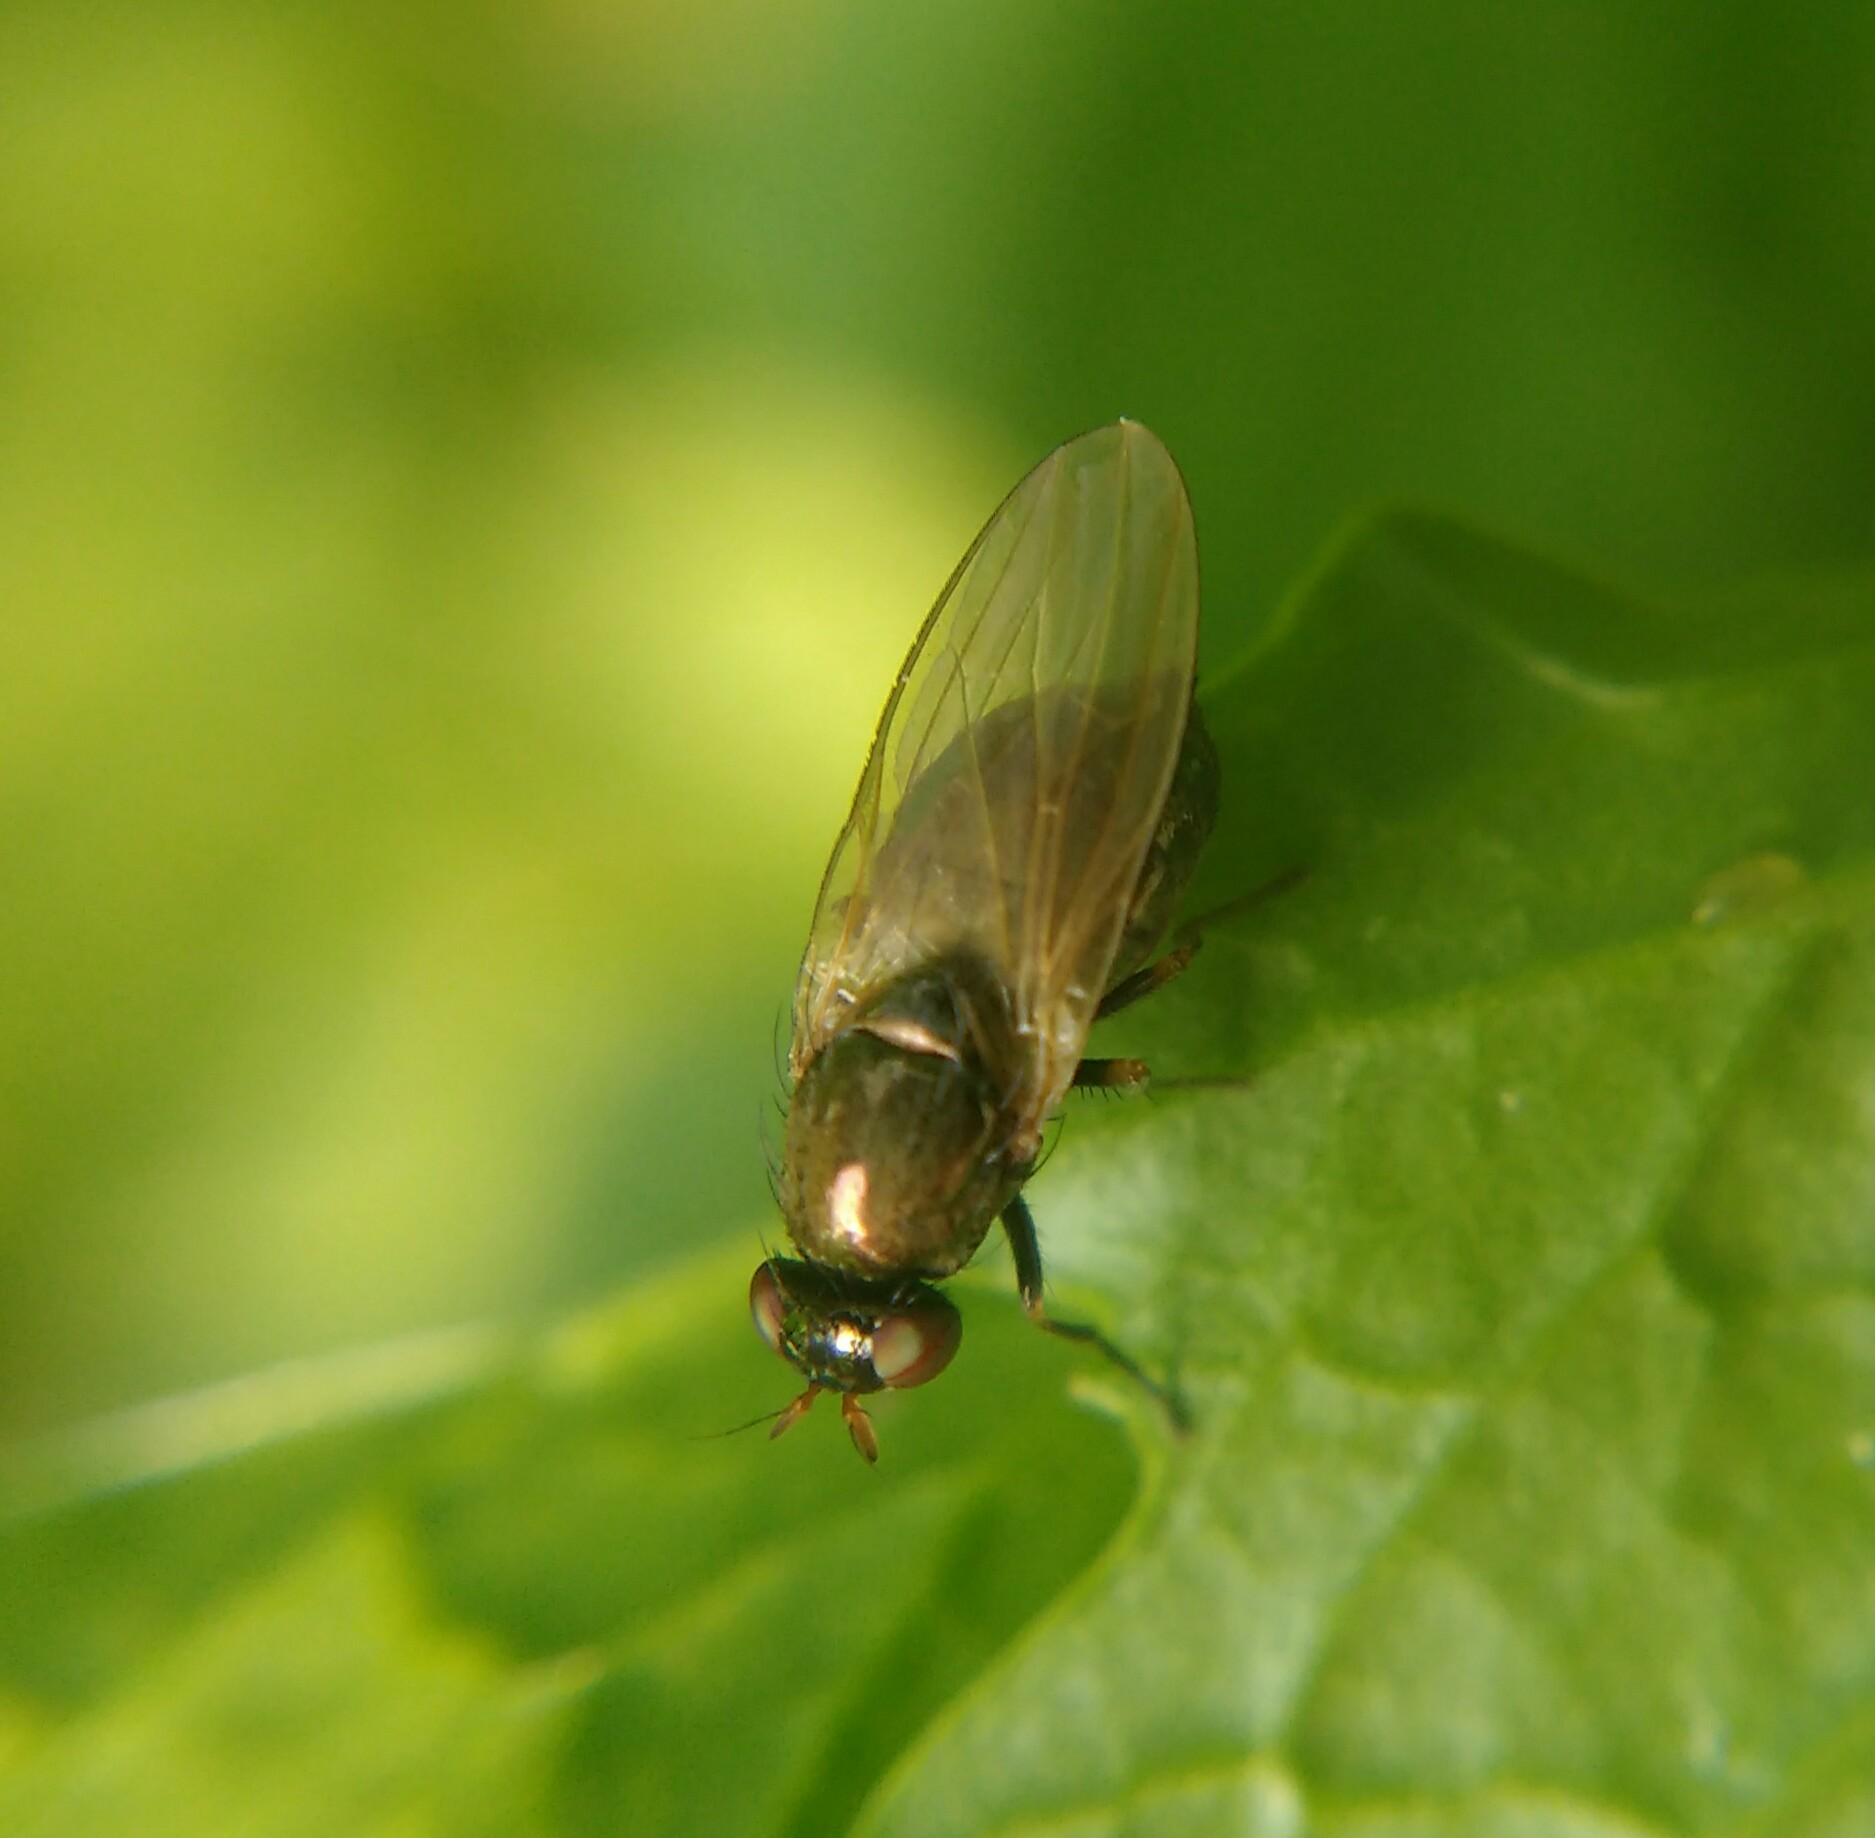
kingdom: Animalia
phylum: Arthropoda
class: Insecta
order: Diptera
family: Lauxaniidae
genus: Calliopum
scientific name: Calliopum aeneum
